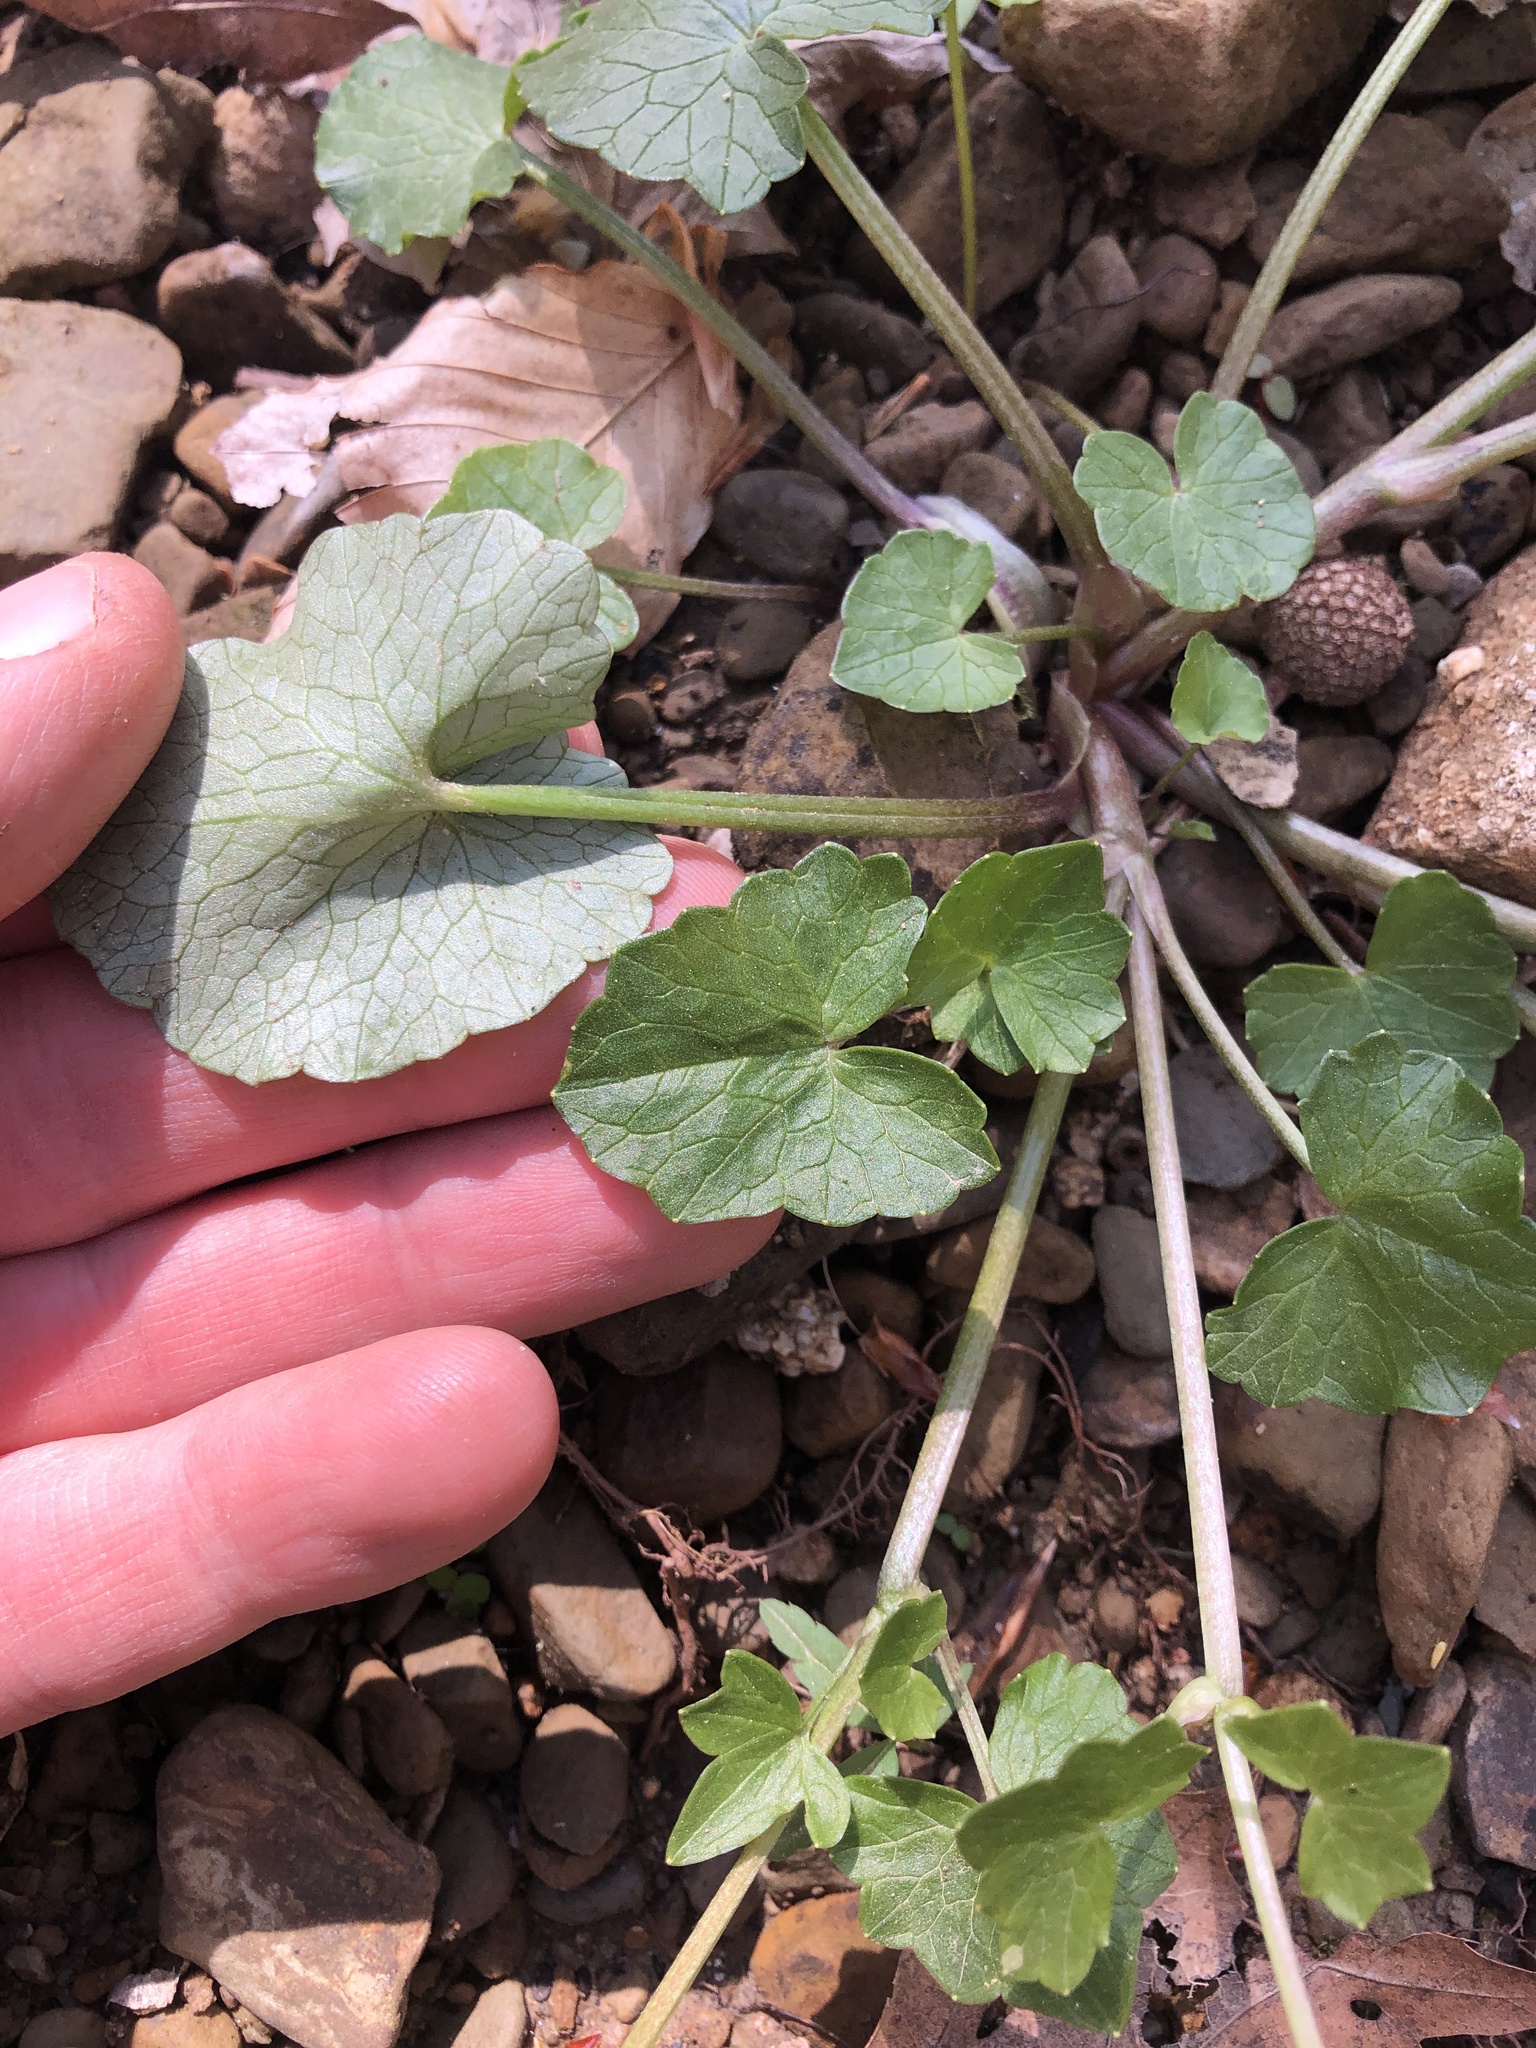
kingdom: Plantae
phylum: Tracheophyta
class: Magnoliopsida
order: Ranunculales
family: Ranunculaceae
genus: Ficaria
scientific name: Ficaria verna
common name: Lesser celandine
